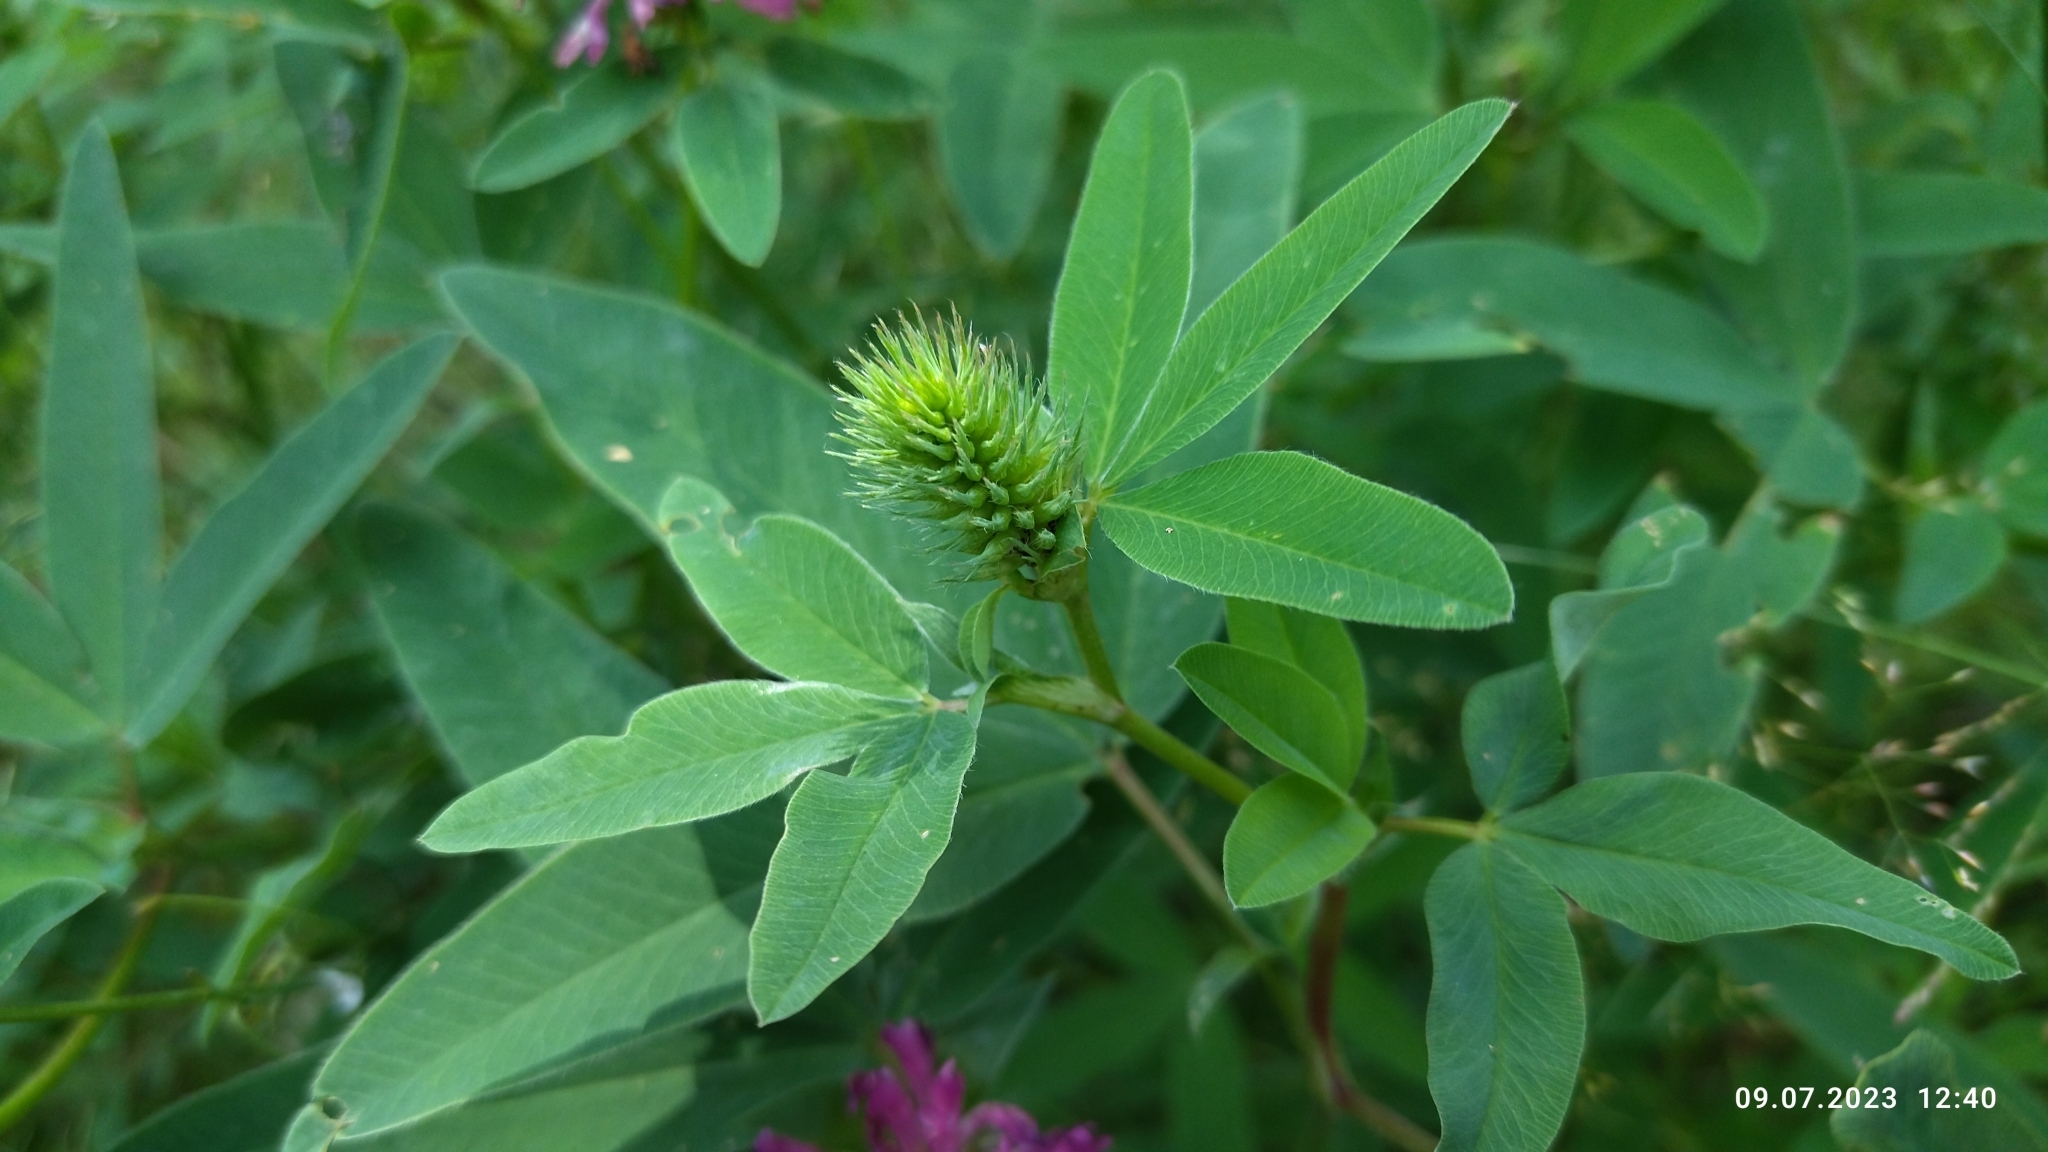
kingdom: Plantae
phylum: Tracheophyta
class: Magnoliopsida
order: Fabales
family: Fabaceae
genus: Trifolium
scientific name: Trifolium medium
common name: Zigzag clover
